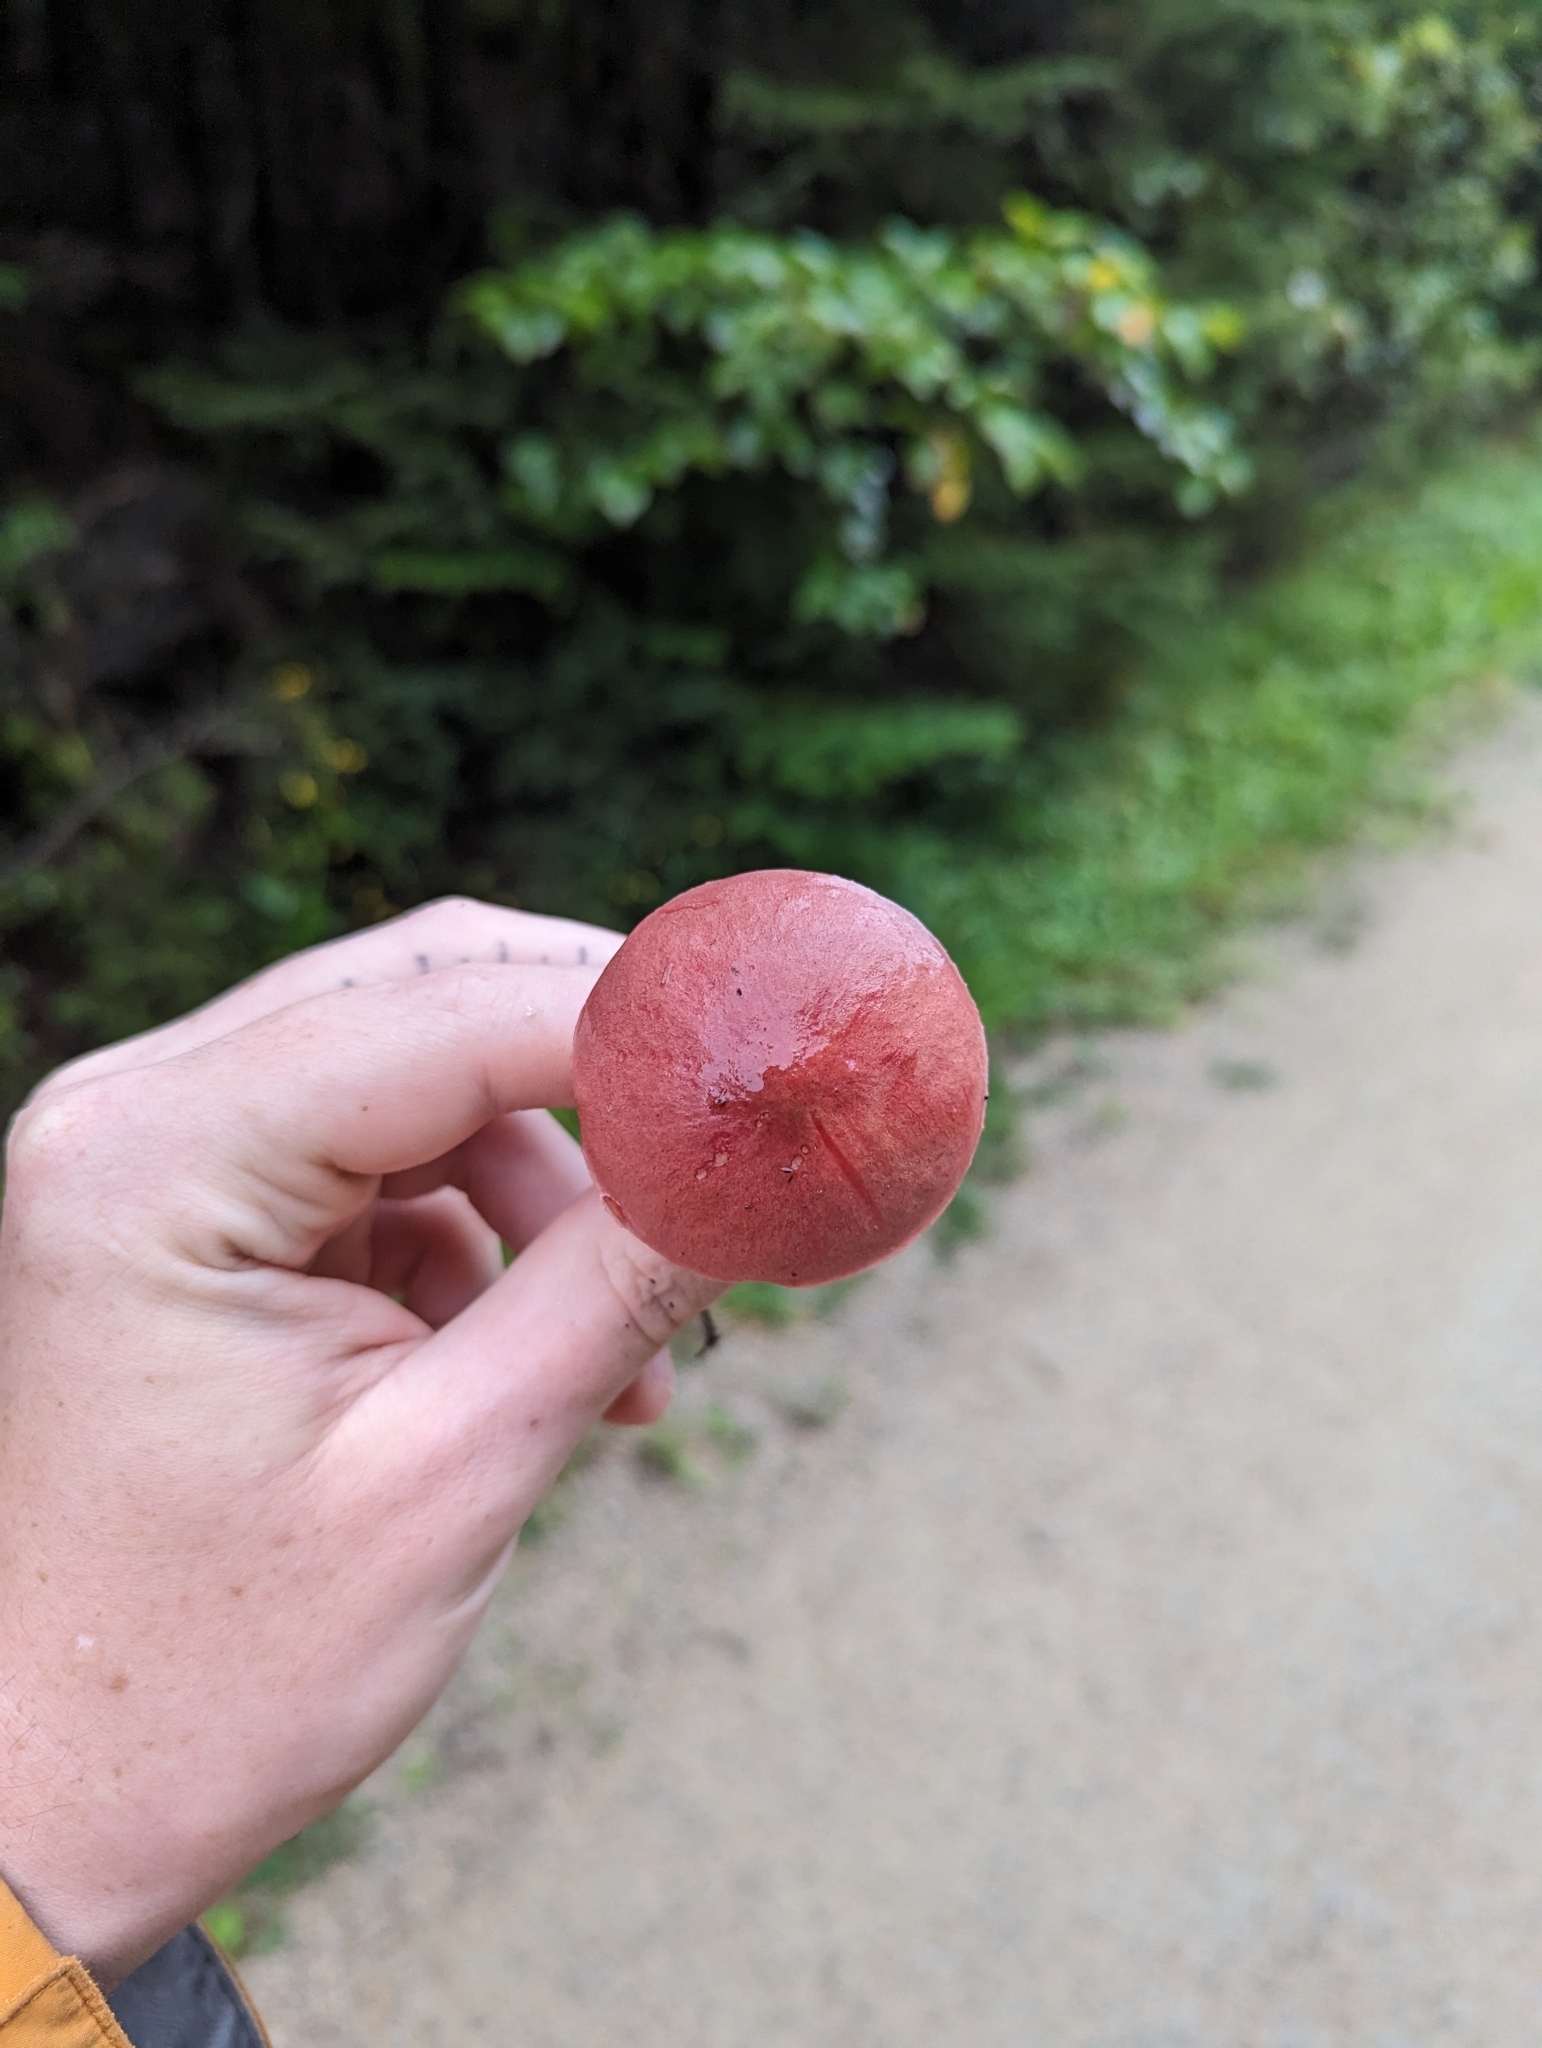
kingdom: Fungi
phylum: Basidiomycota
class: Agaricomycetes
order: Boletales
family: Boletaceae
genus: Harrya
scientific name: Harrya chromipes
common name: Chrome-footed bolete
